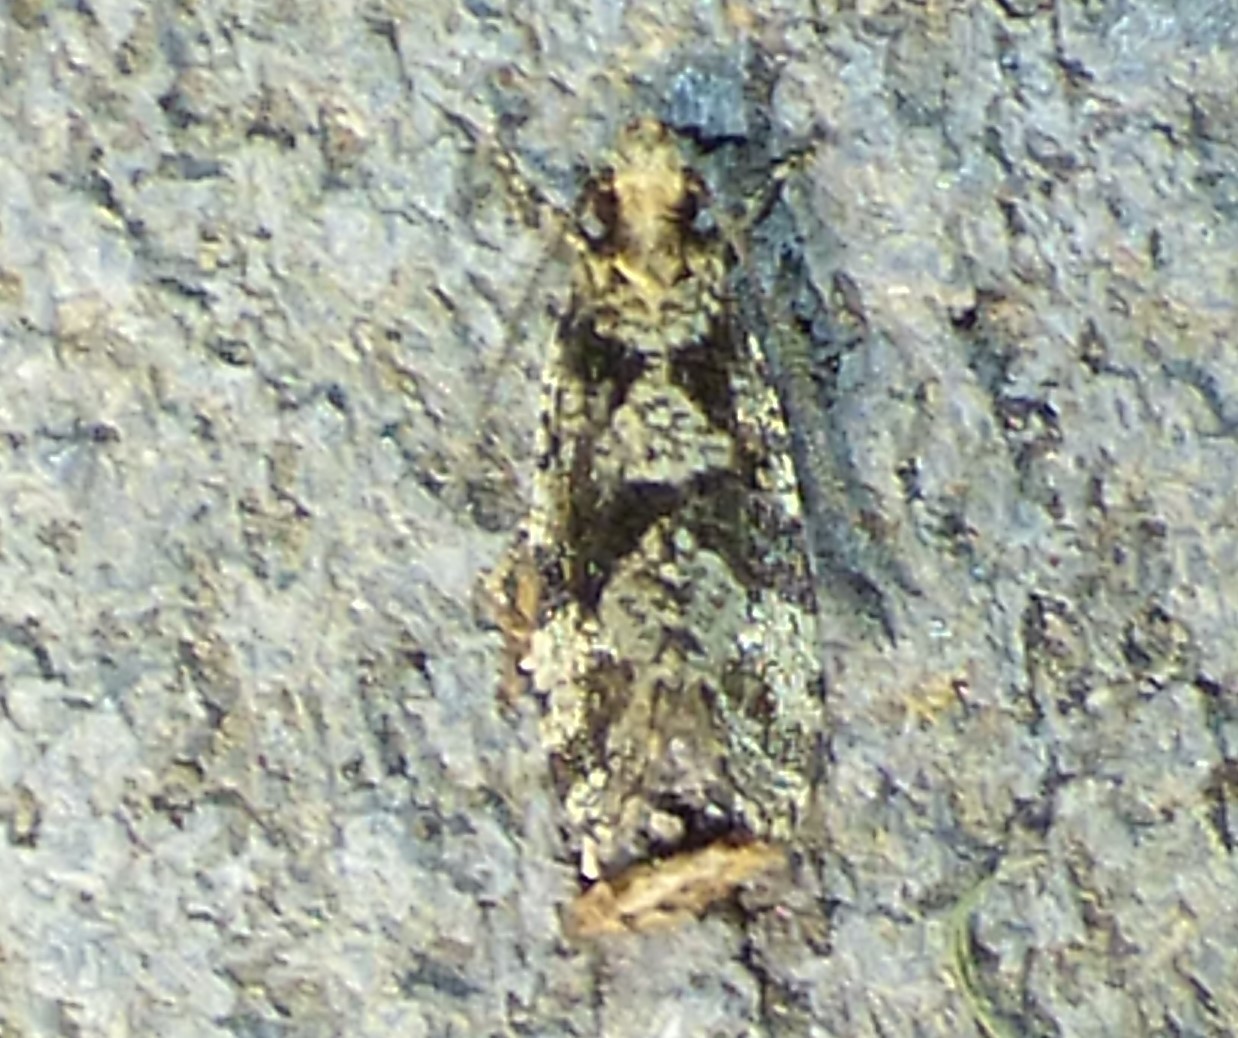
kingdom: Animalia
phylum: Arthropoda
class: Insecta
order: Lepidoptera
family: Tineidae
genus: Scardiella
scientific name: Scardiella approximatella
